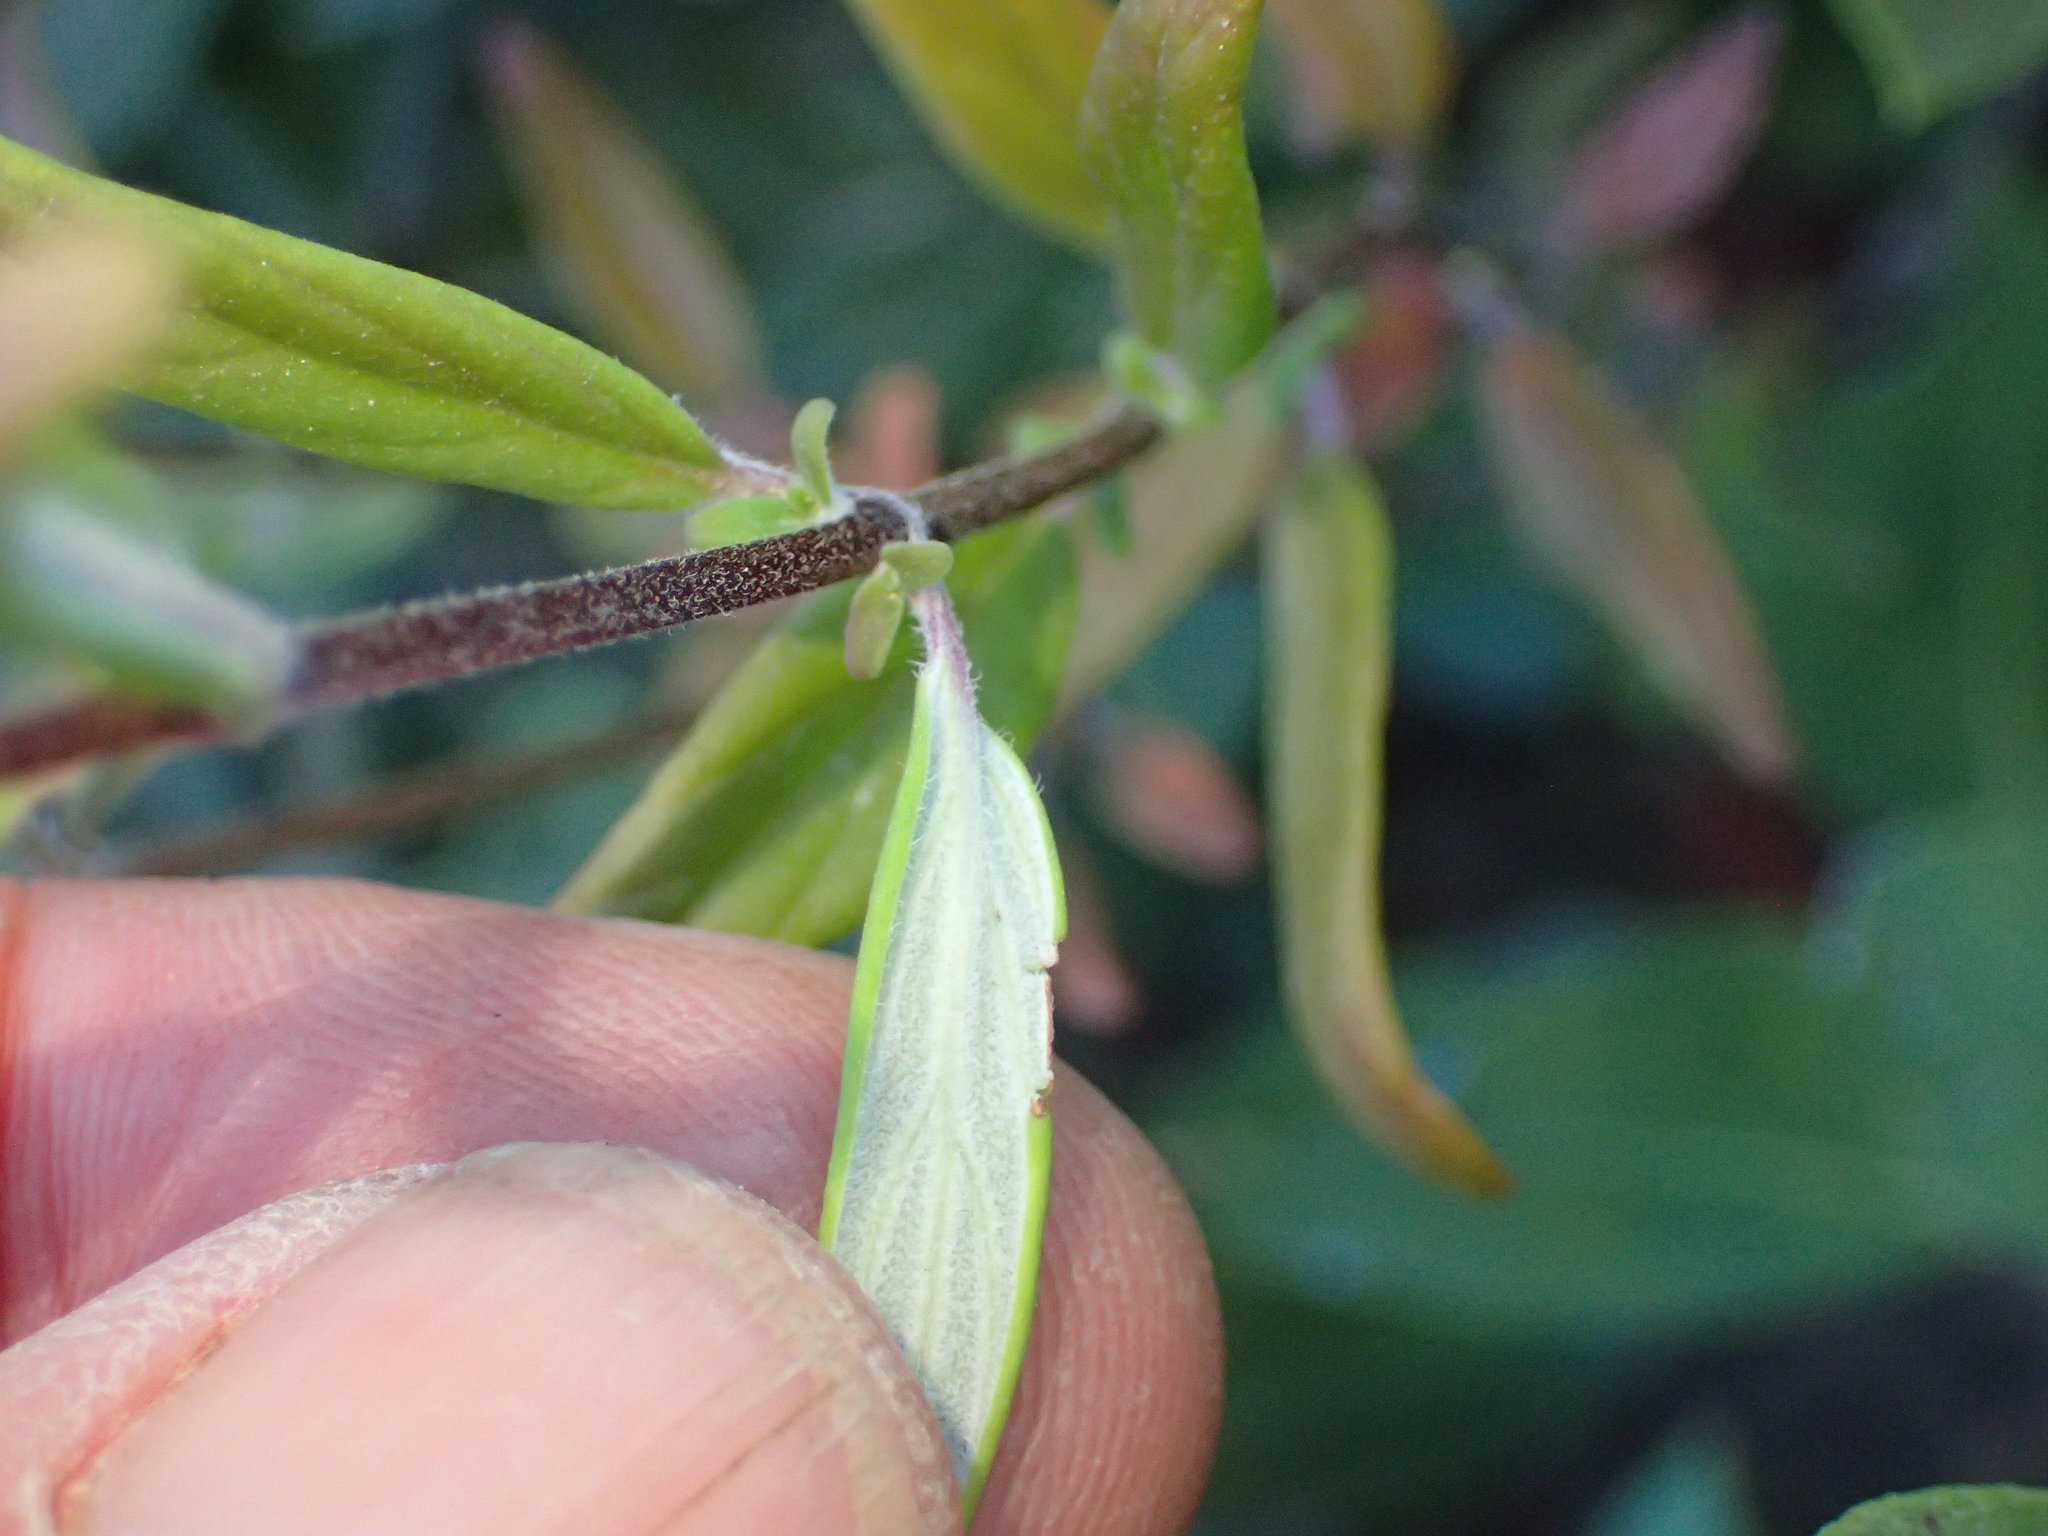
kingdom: Plantae
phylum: Tracheophyta
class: Magnoliopsida
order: Lamiales
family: Lamiaceae
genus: Monardella
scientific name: Monardella hypoleuca
